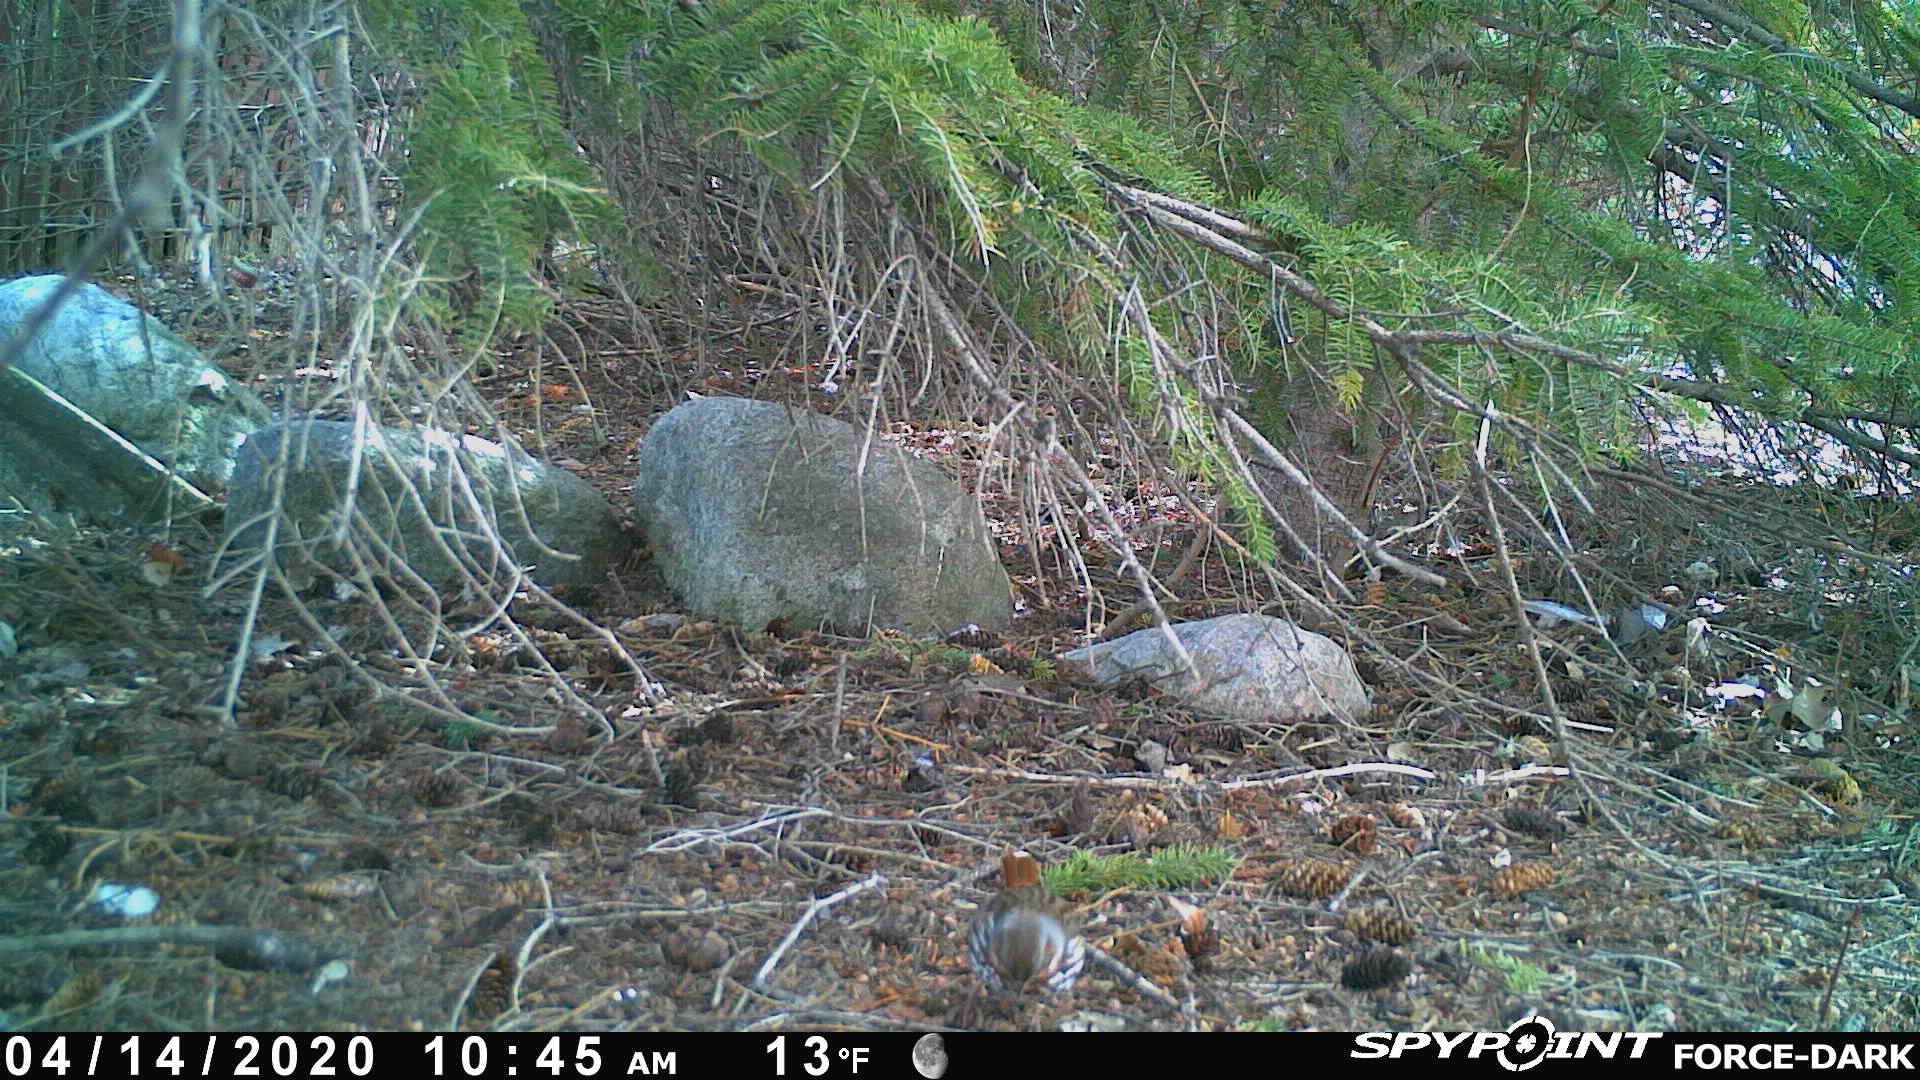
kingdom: Animalia
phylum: Chordata
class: Aves
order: Passeriformes
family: Passerellidae
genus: Passerella
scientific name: Passerella iliaca
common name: Fox sparrow
